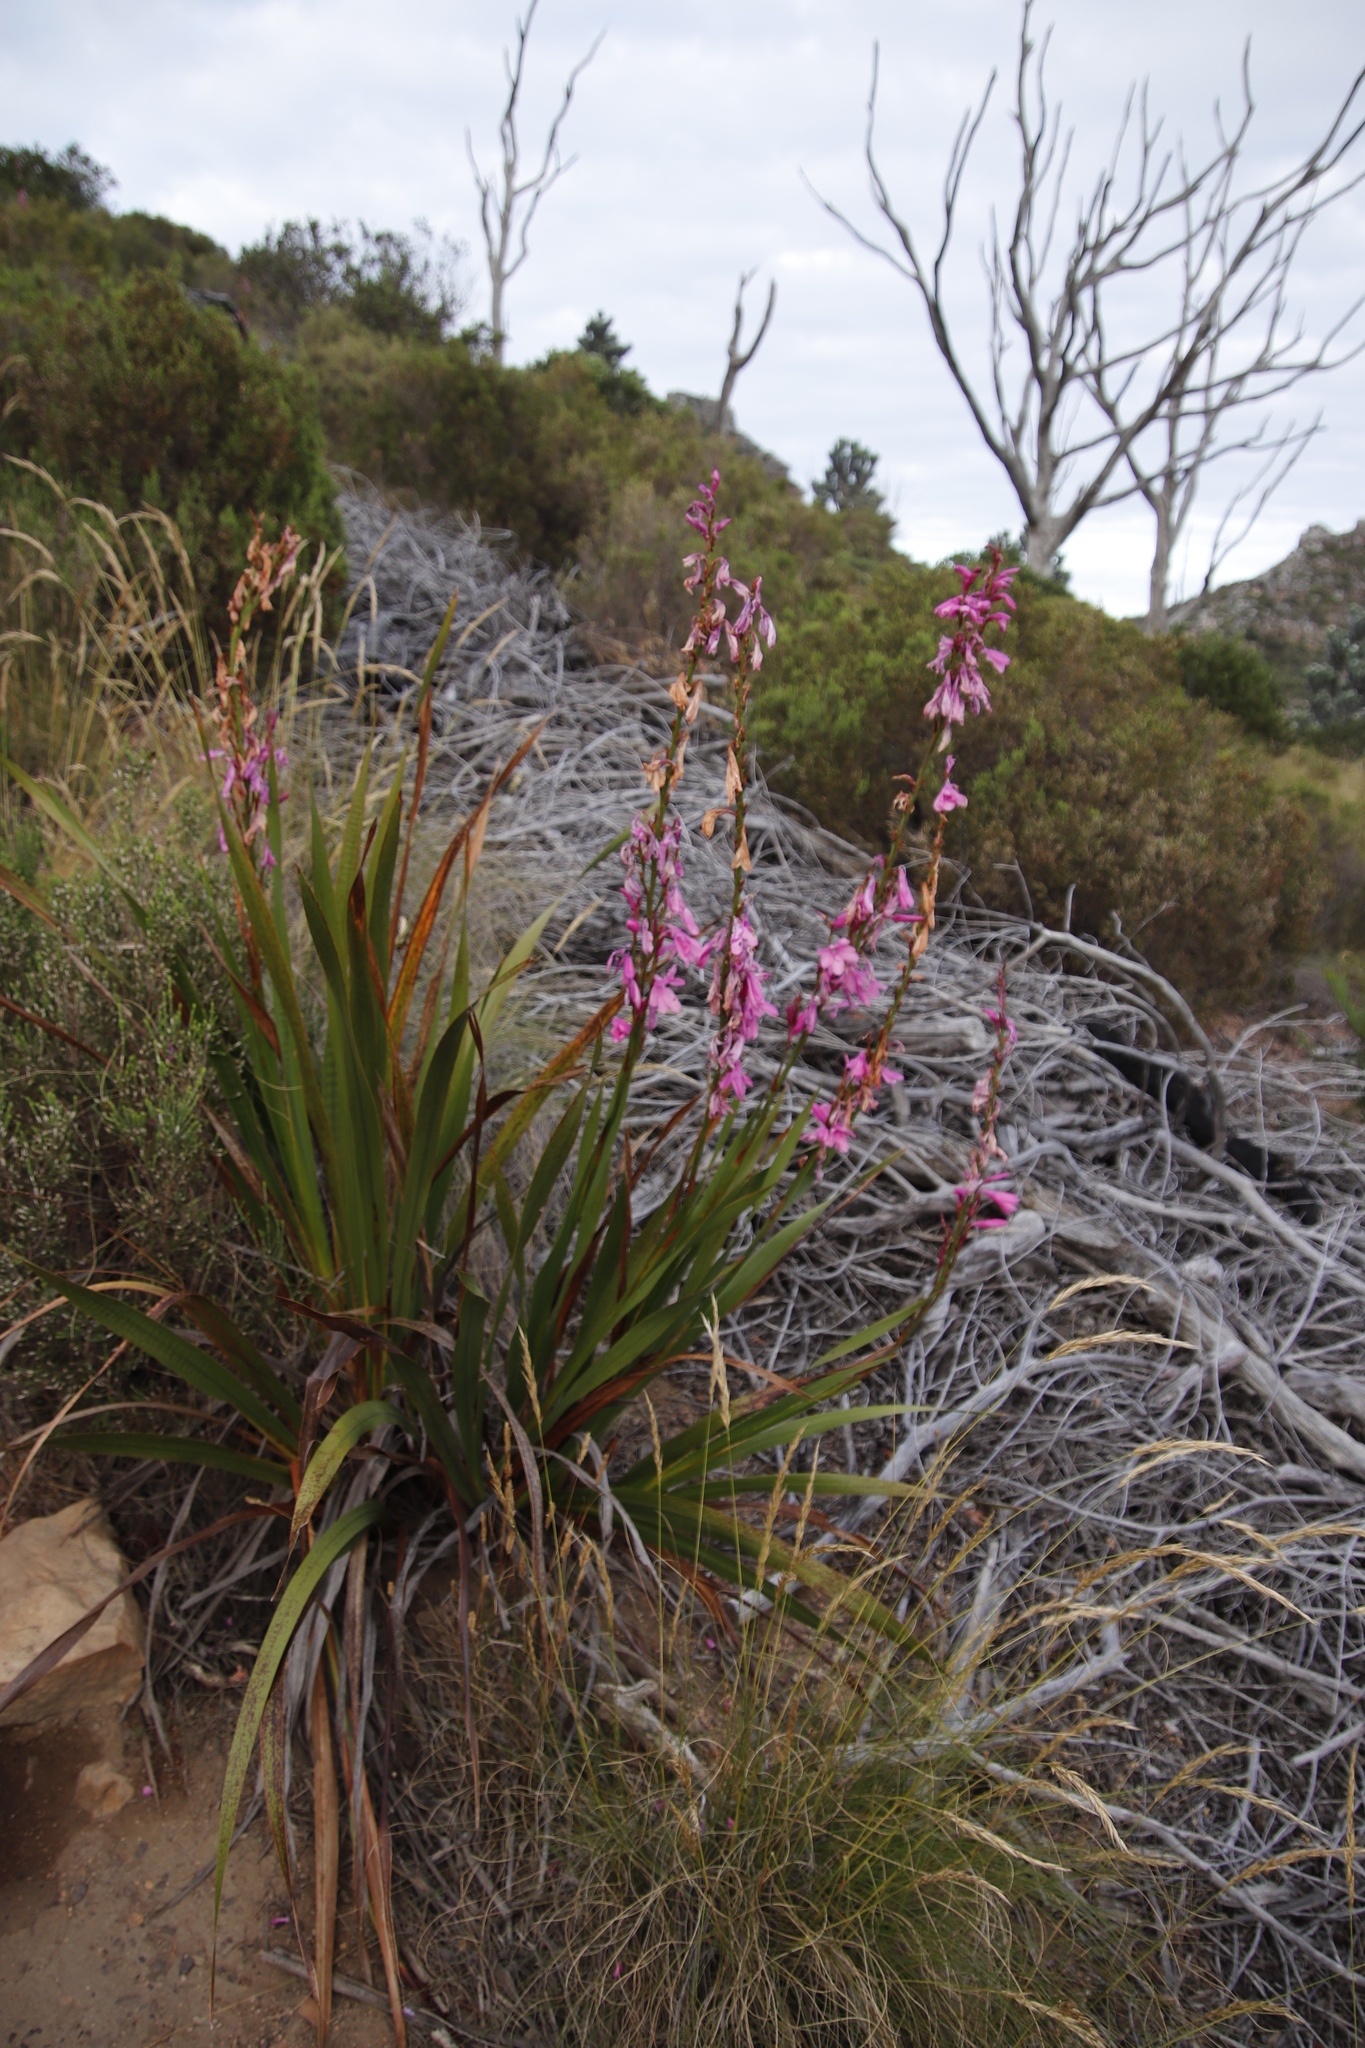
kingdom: Plantae
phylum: Tracheophyta
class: Liliopsida
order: Asparagales
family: Iridaceae
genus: Watsonia
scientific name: Watsonia borbonica
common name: Bugle-lily
